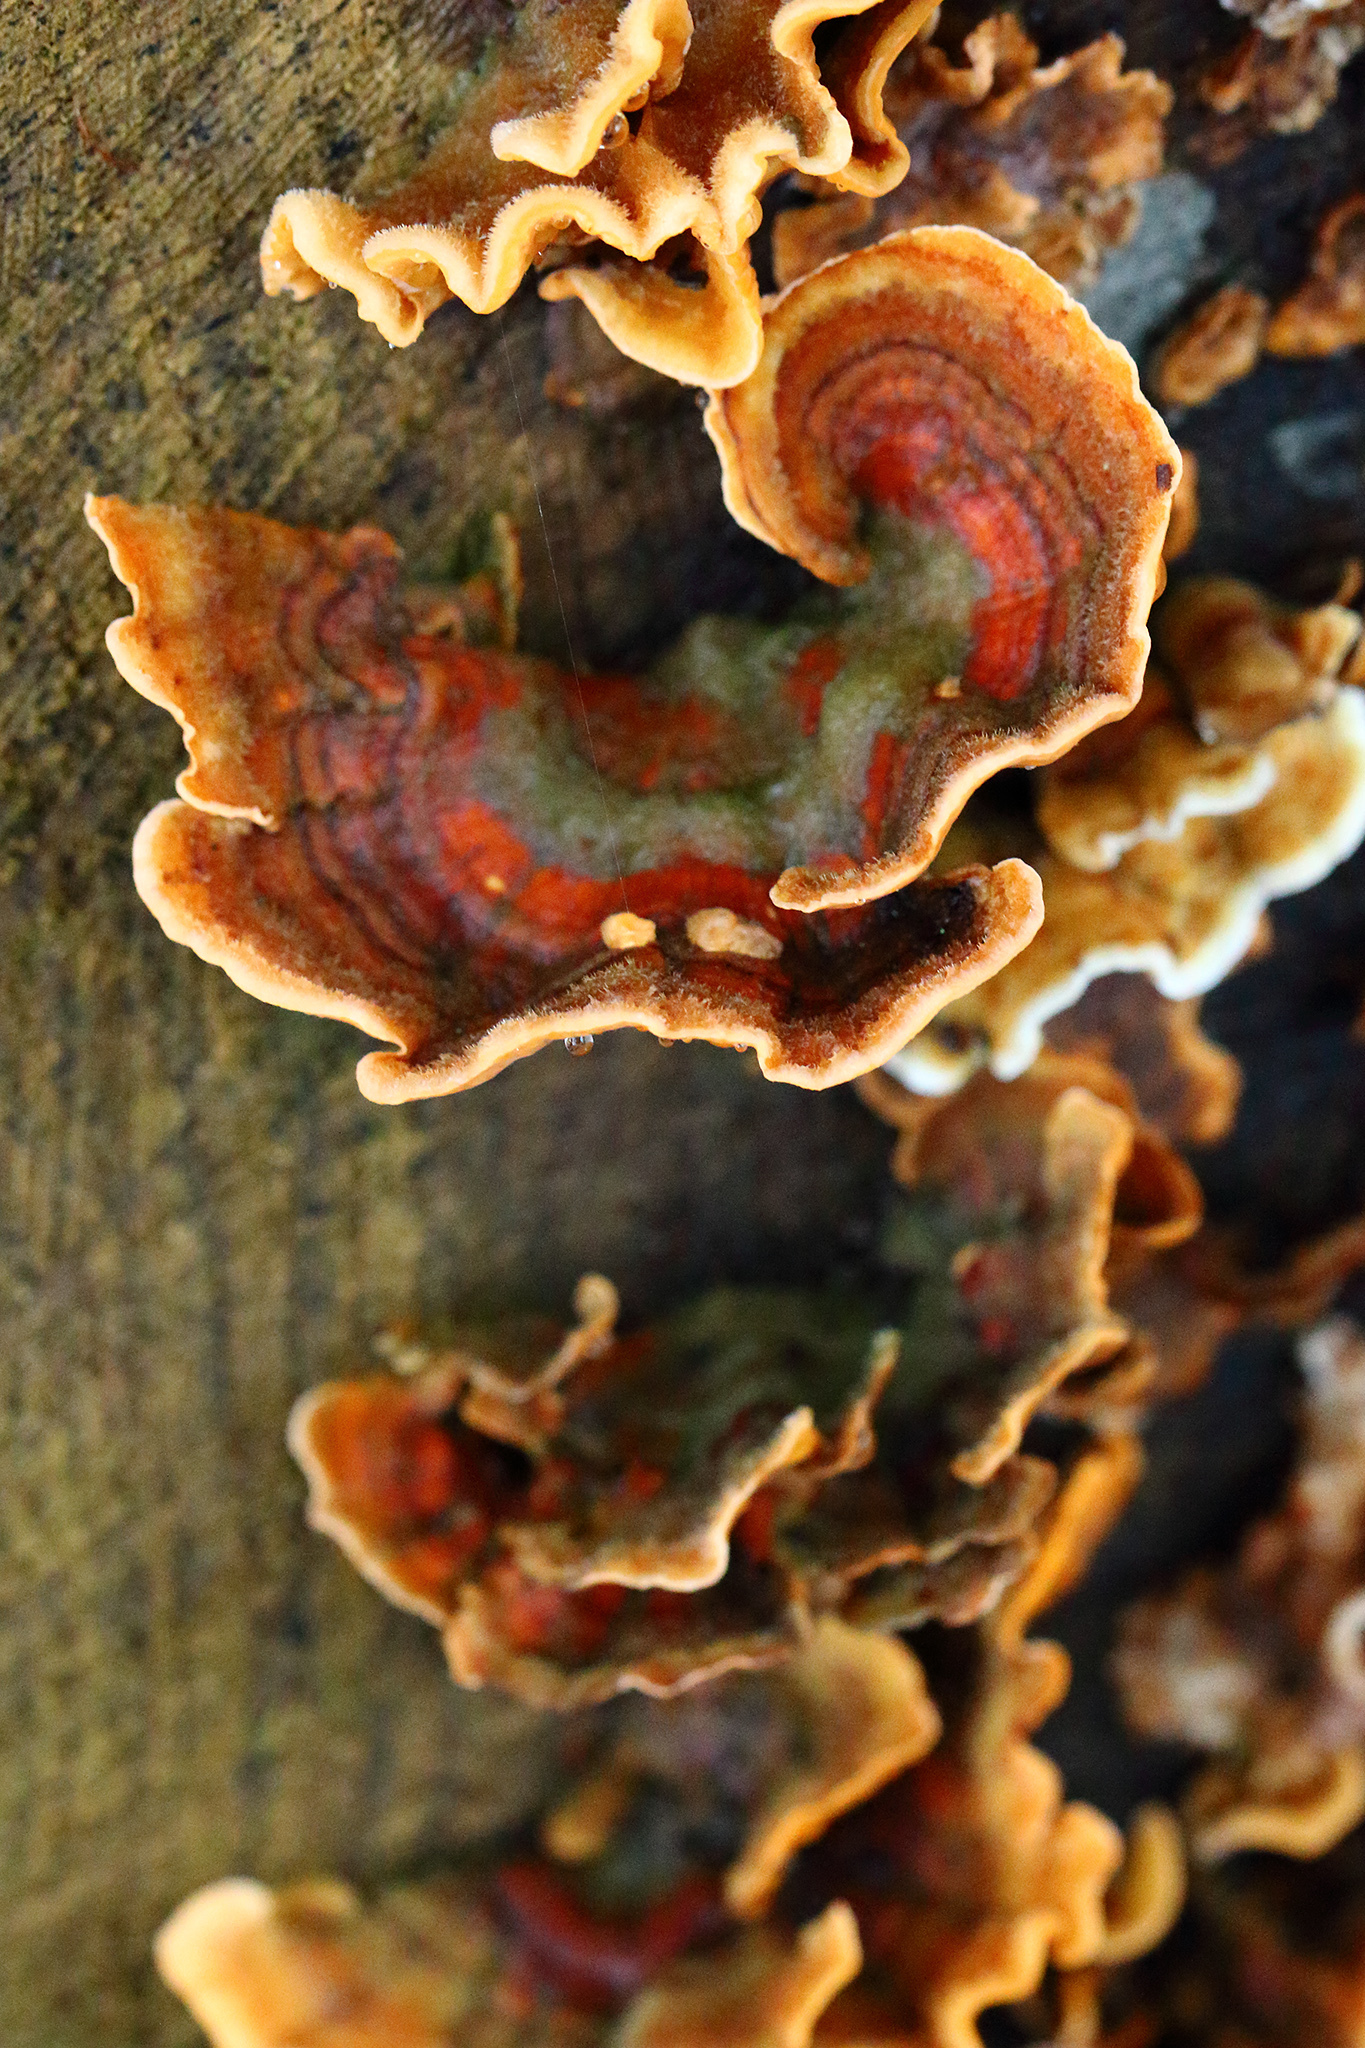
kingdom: Fungi
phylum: Basidiomycota
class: Agaricomycetes
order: Russulales
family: Stereaceae
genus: Stereum
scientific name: Stereum subtomentosum
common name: Yellowing curtain crust
